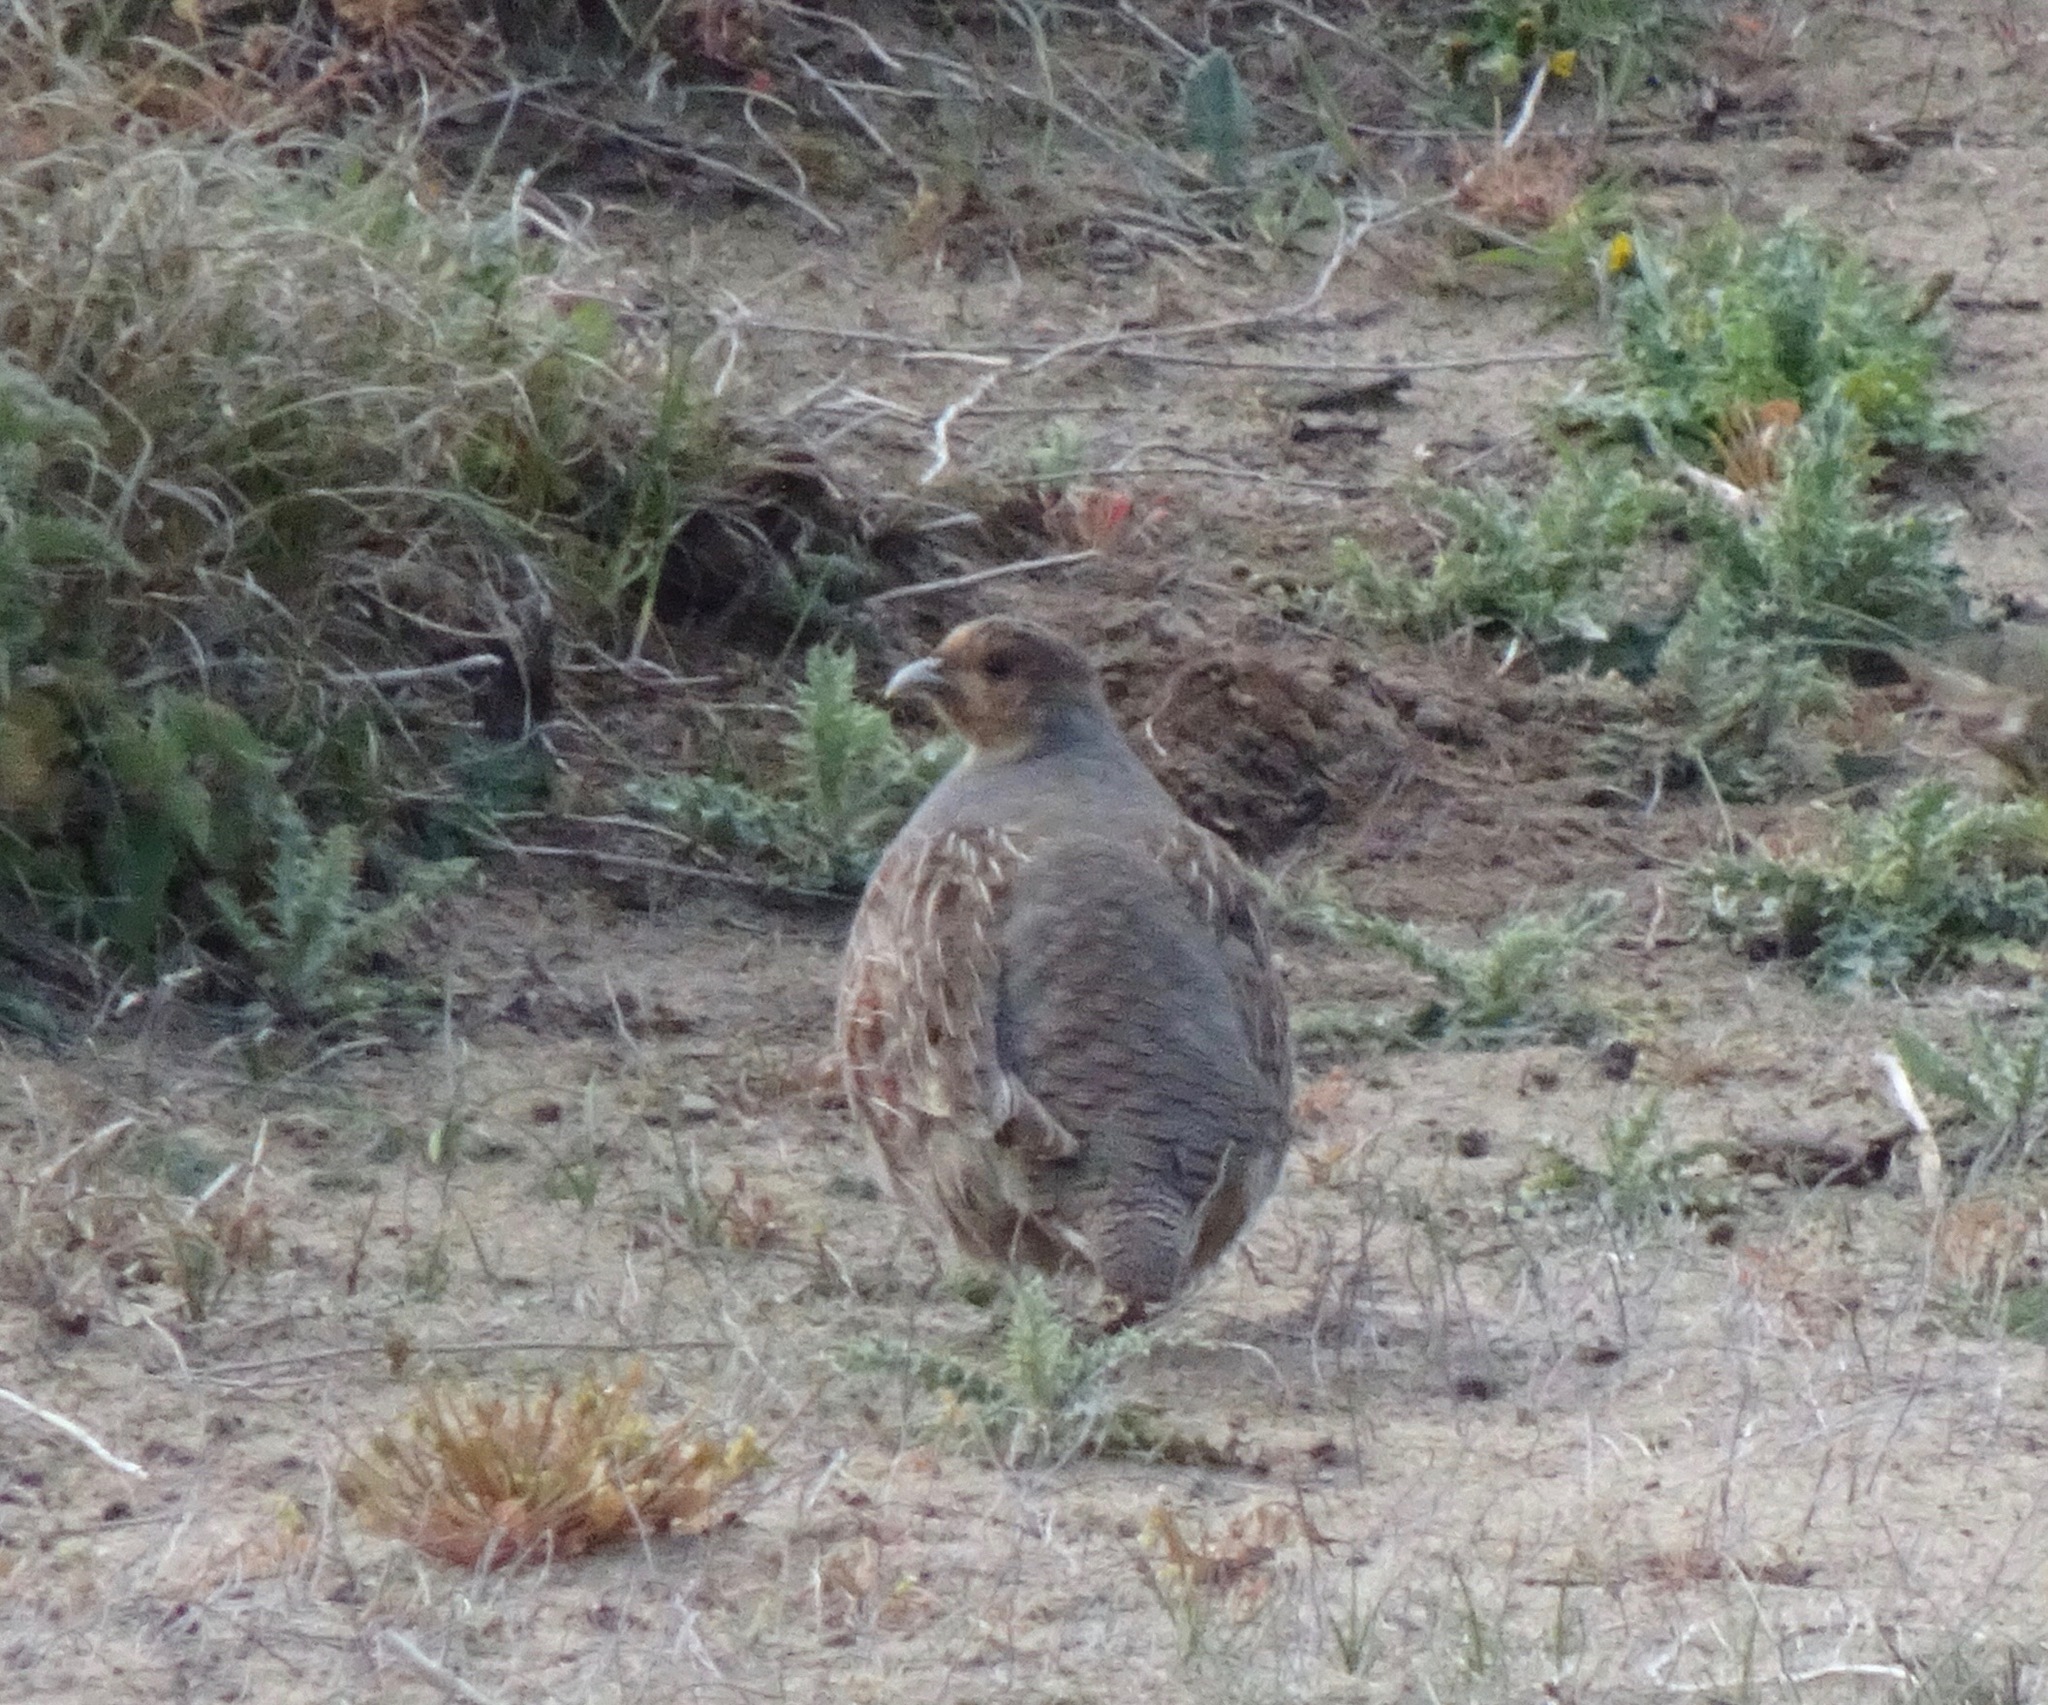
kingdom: Animalia
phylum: Chordata
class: Aves
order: Galliformes
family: Phasianidae
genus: Perdix
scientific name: Perdix perdix
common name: Grey partridge
